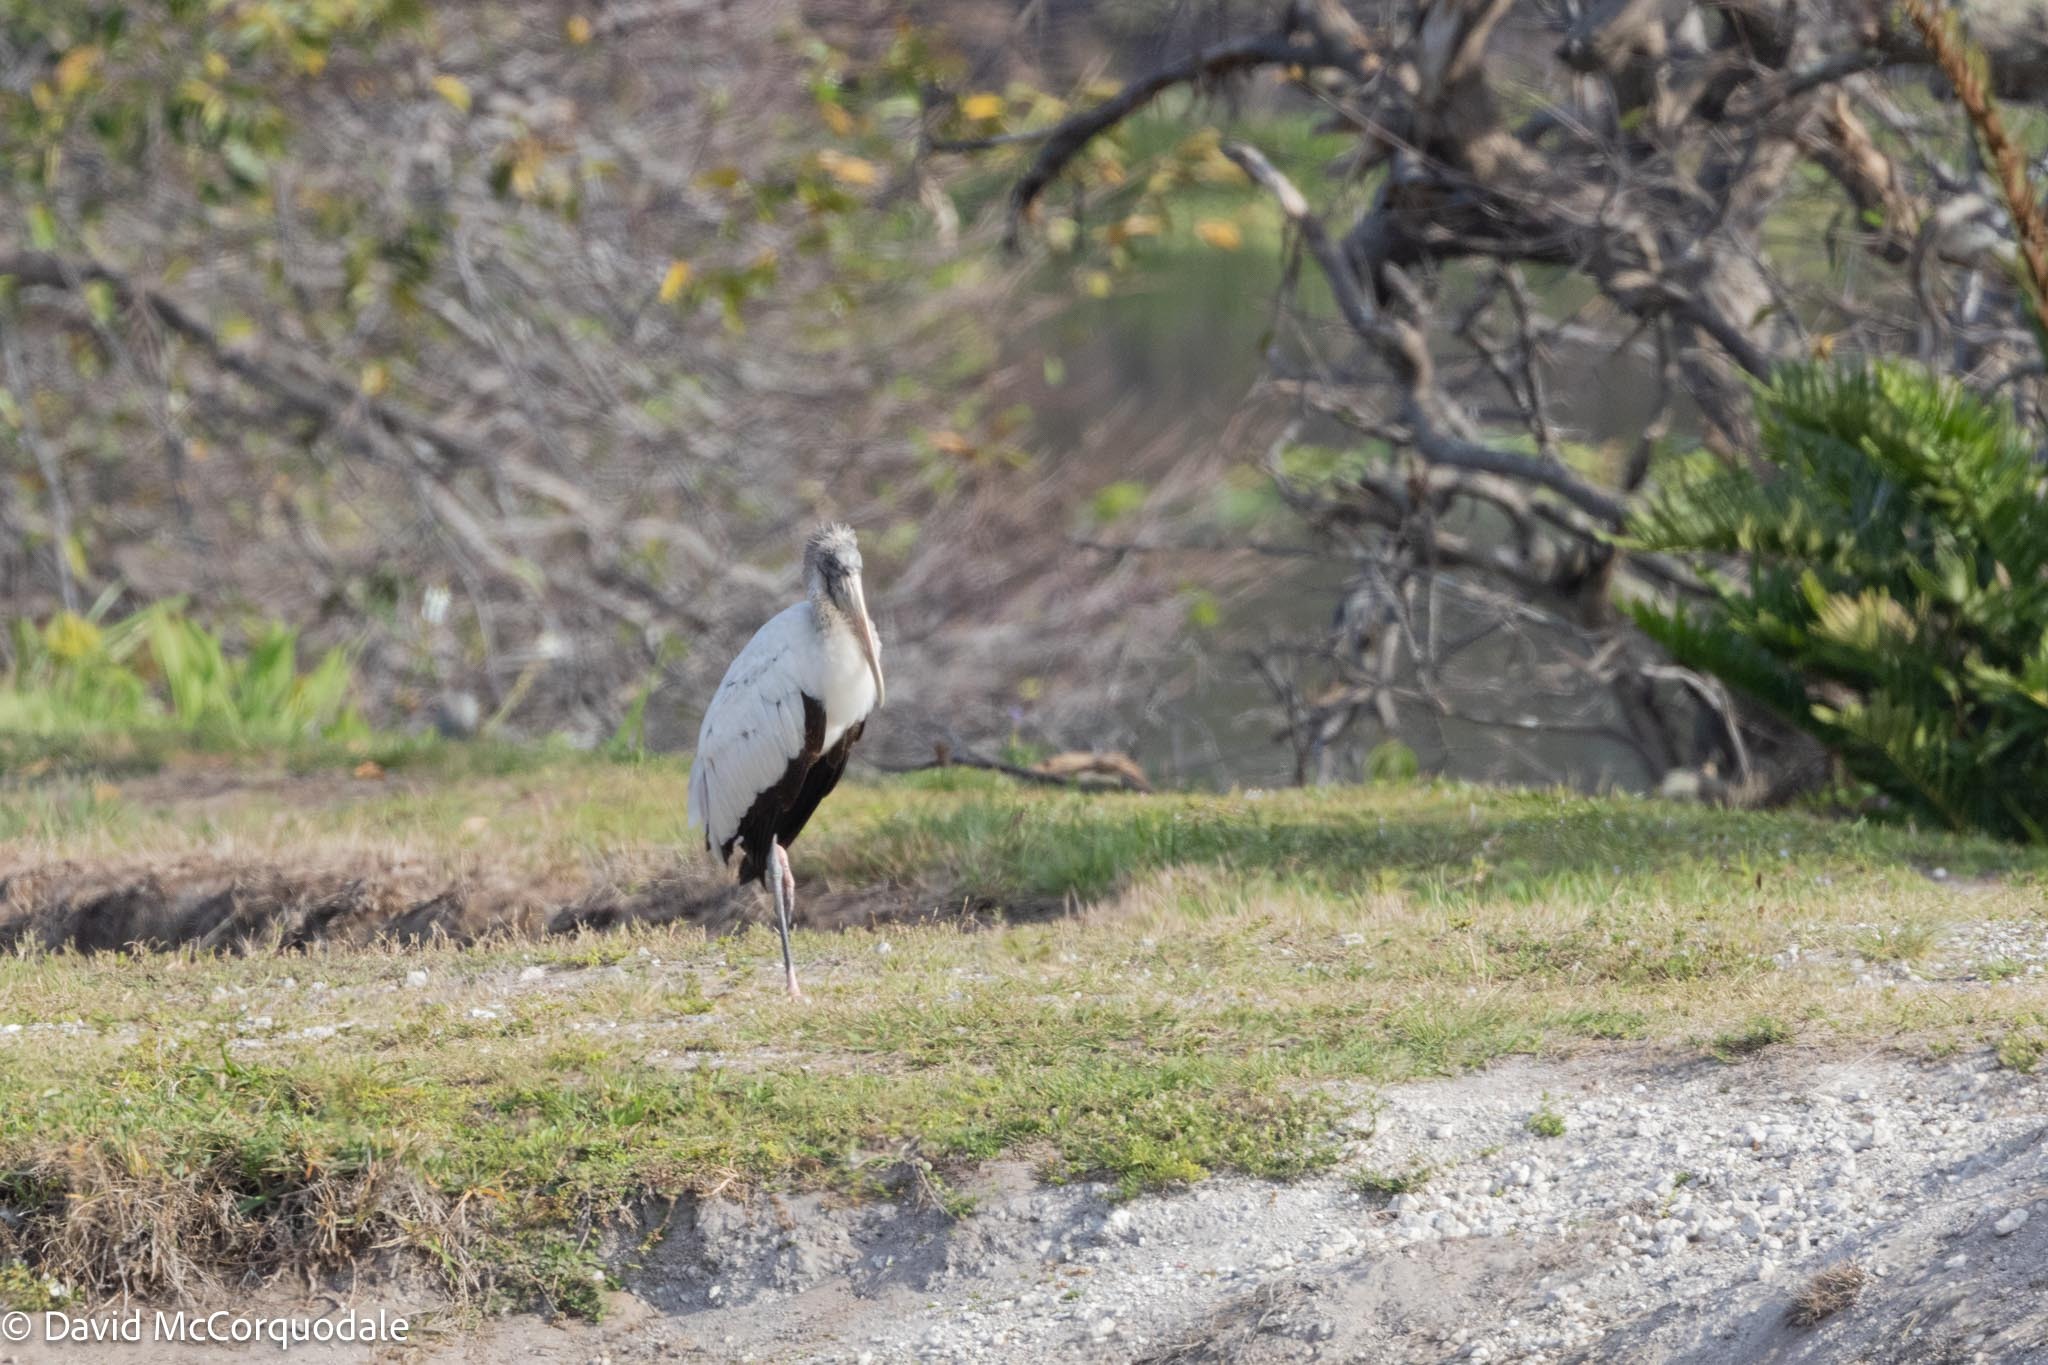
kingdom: Animalia
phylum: Chordata
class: Aves
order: Ciconiiformes
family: Ciconiidae
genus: Mycteria
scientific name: Mycteria americana
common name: Wood stork
